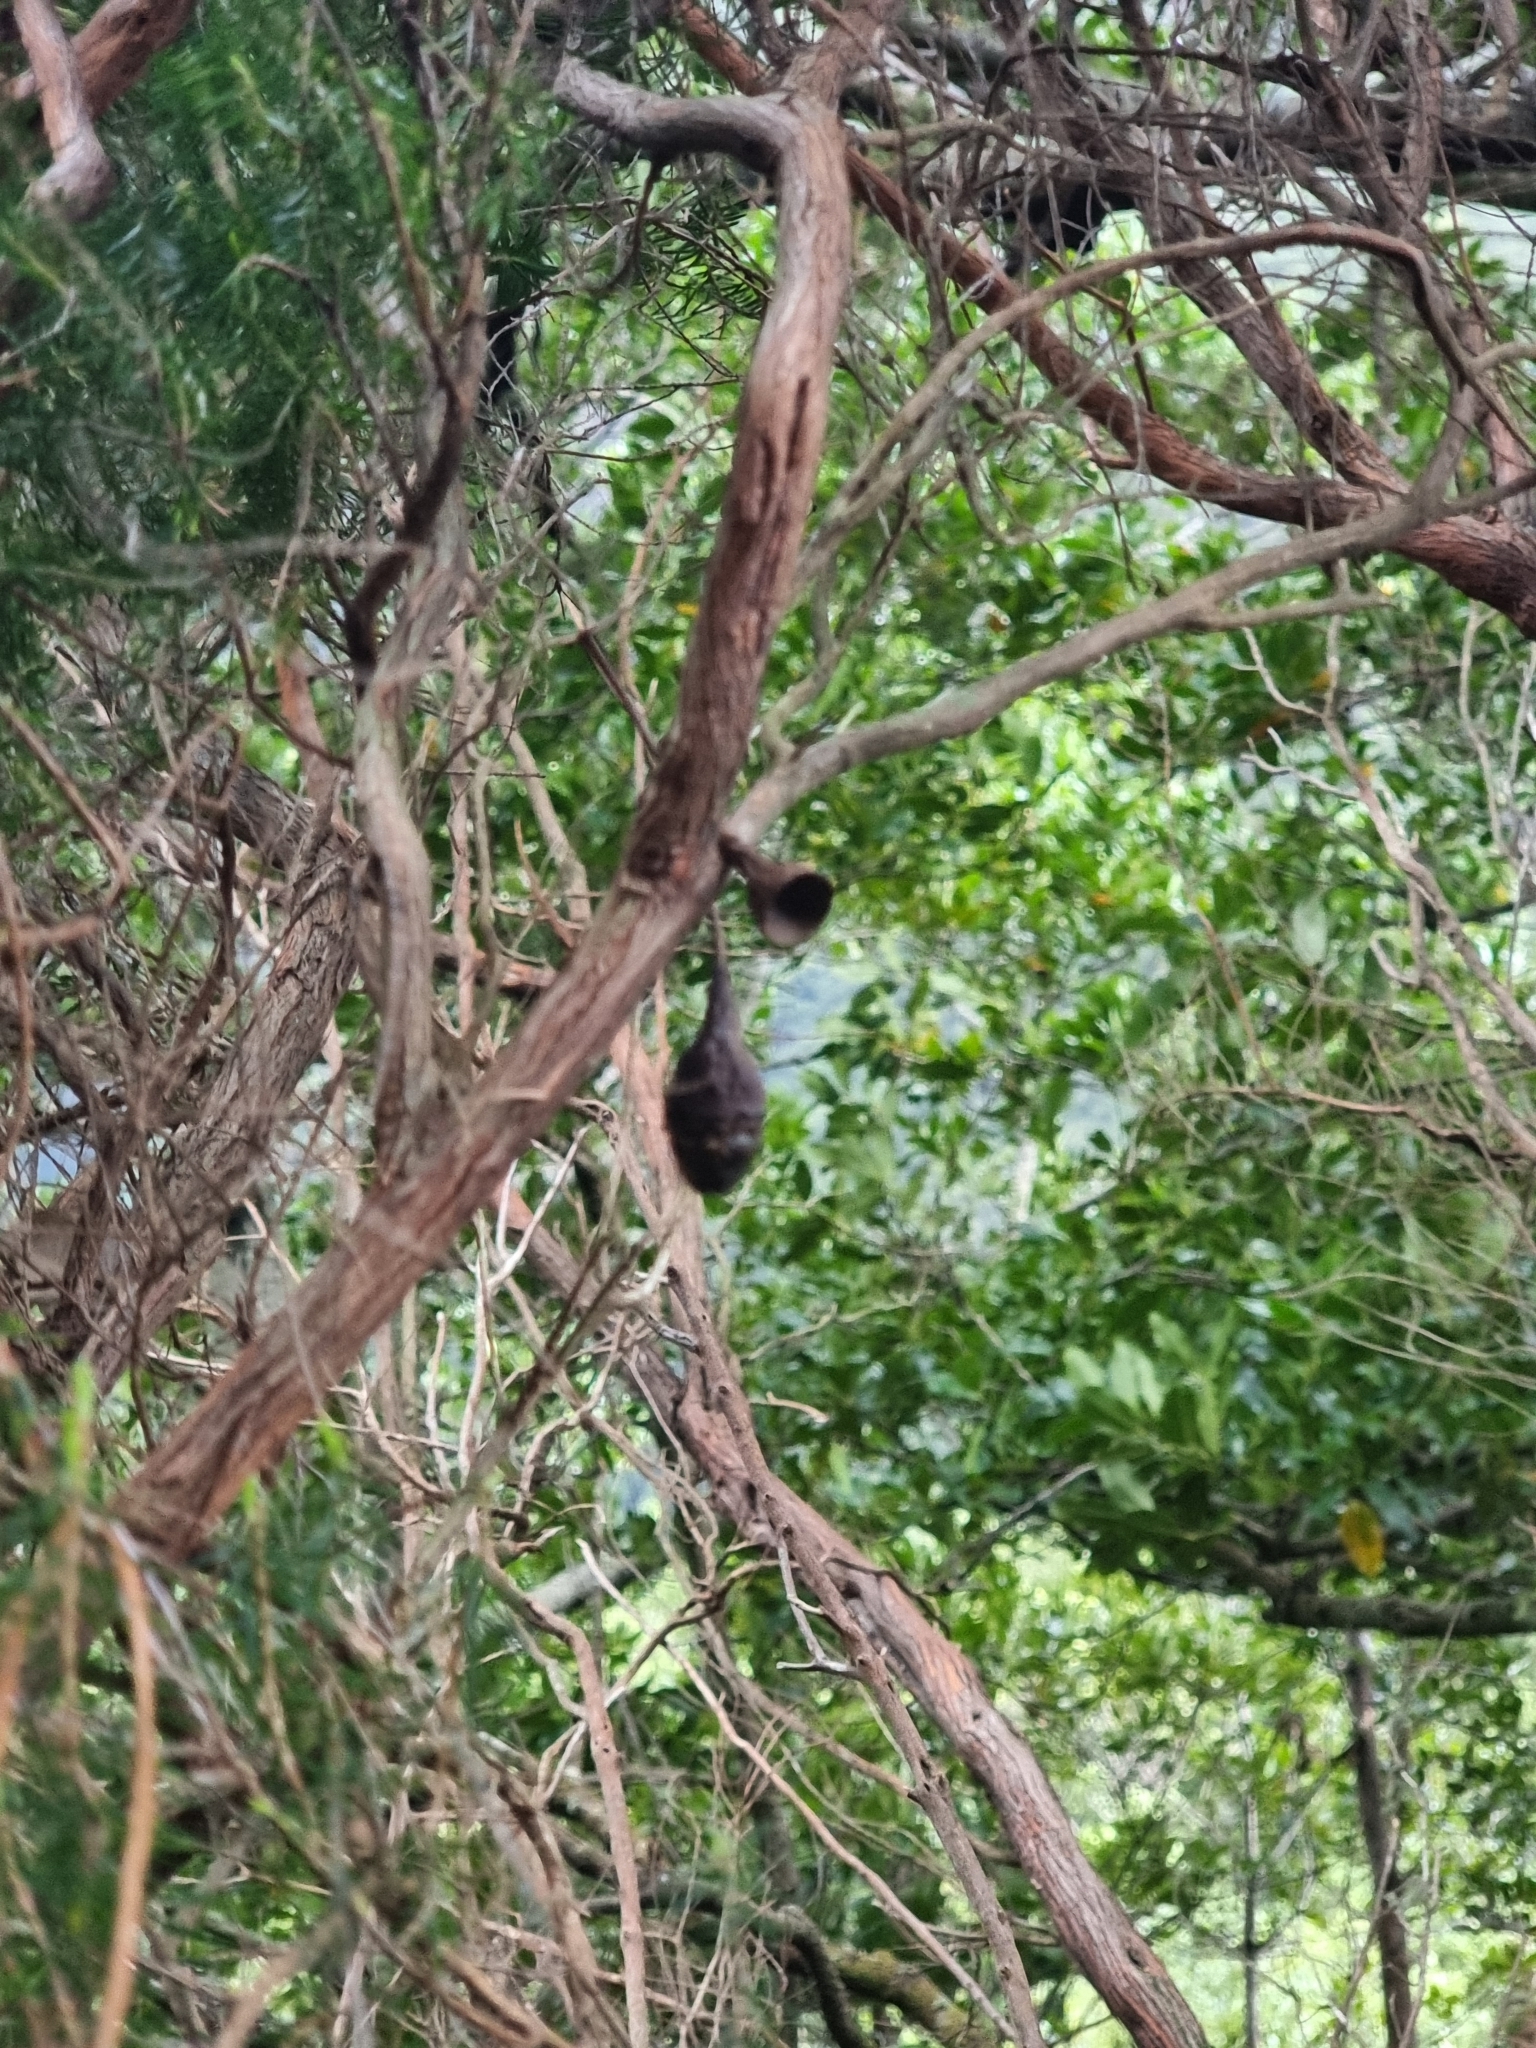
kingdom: Plantae
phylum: Tracheophyta
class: Magnoliopsida
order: Laurales
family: Lauraceae
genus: Mespilodaphne
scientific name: Mespilodaphne foetens
